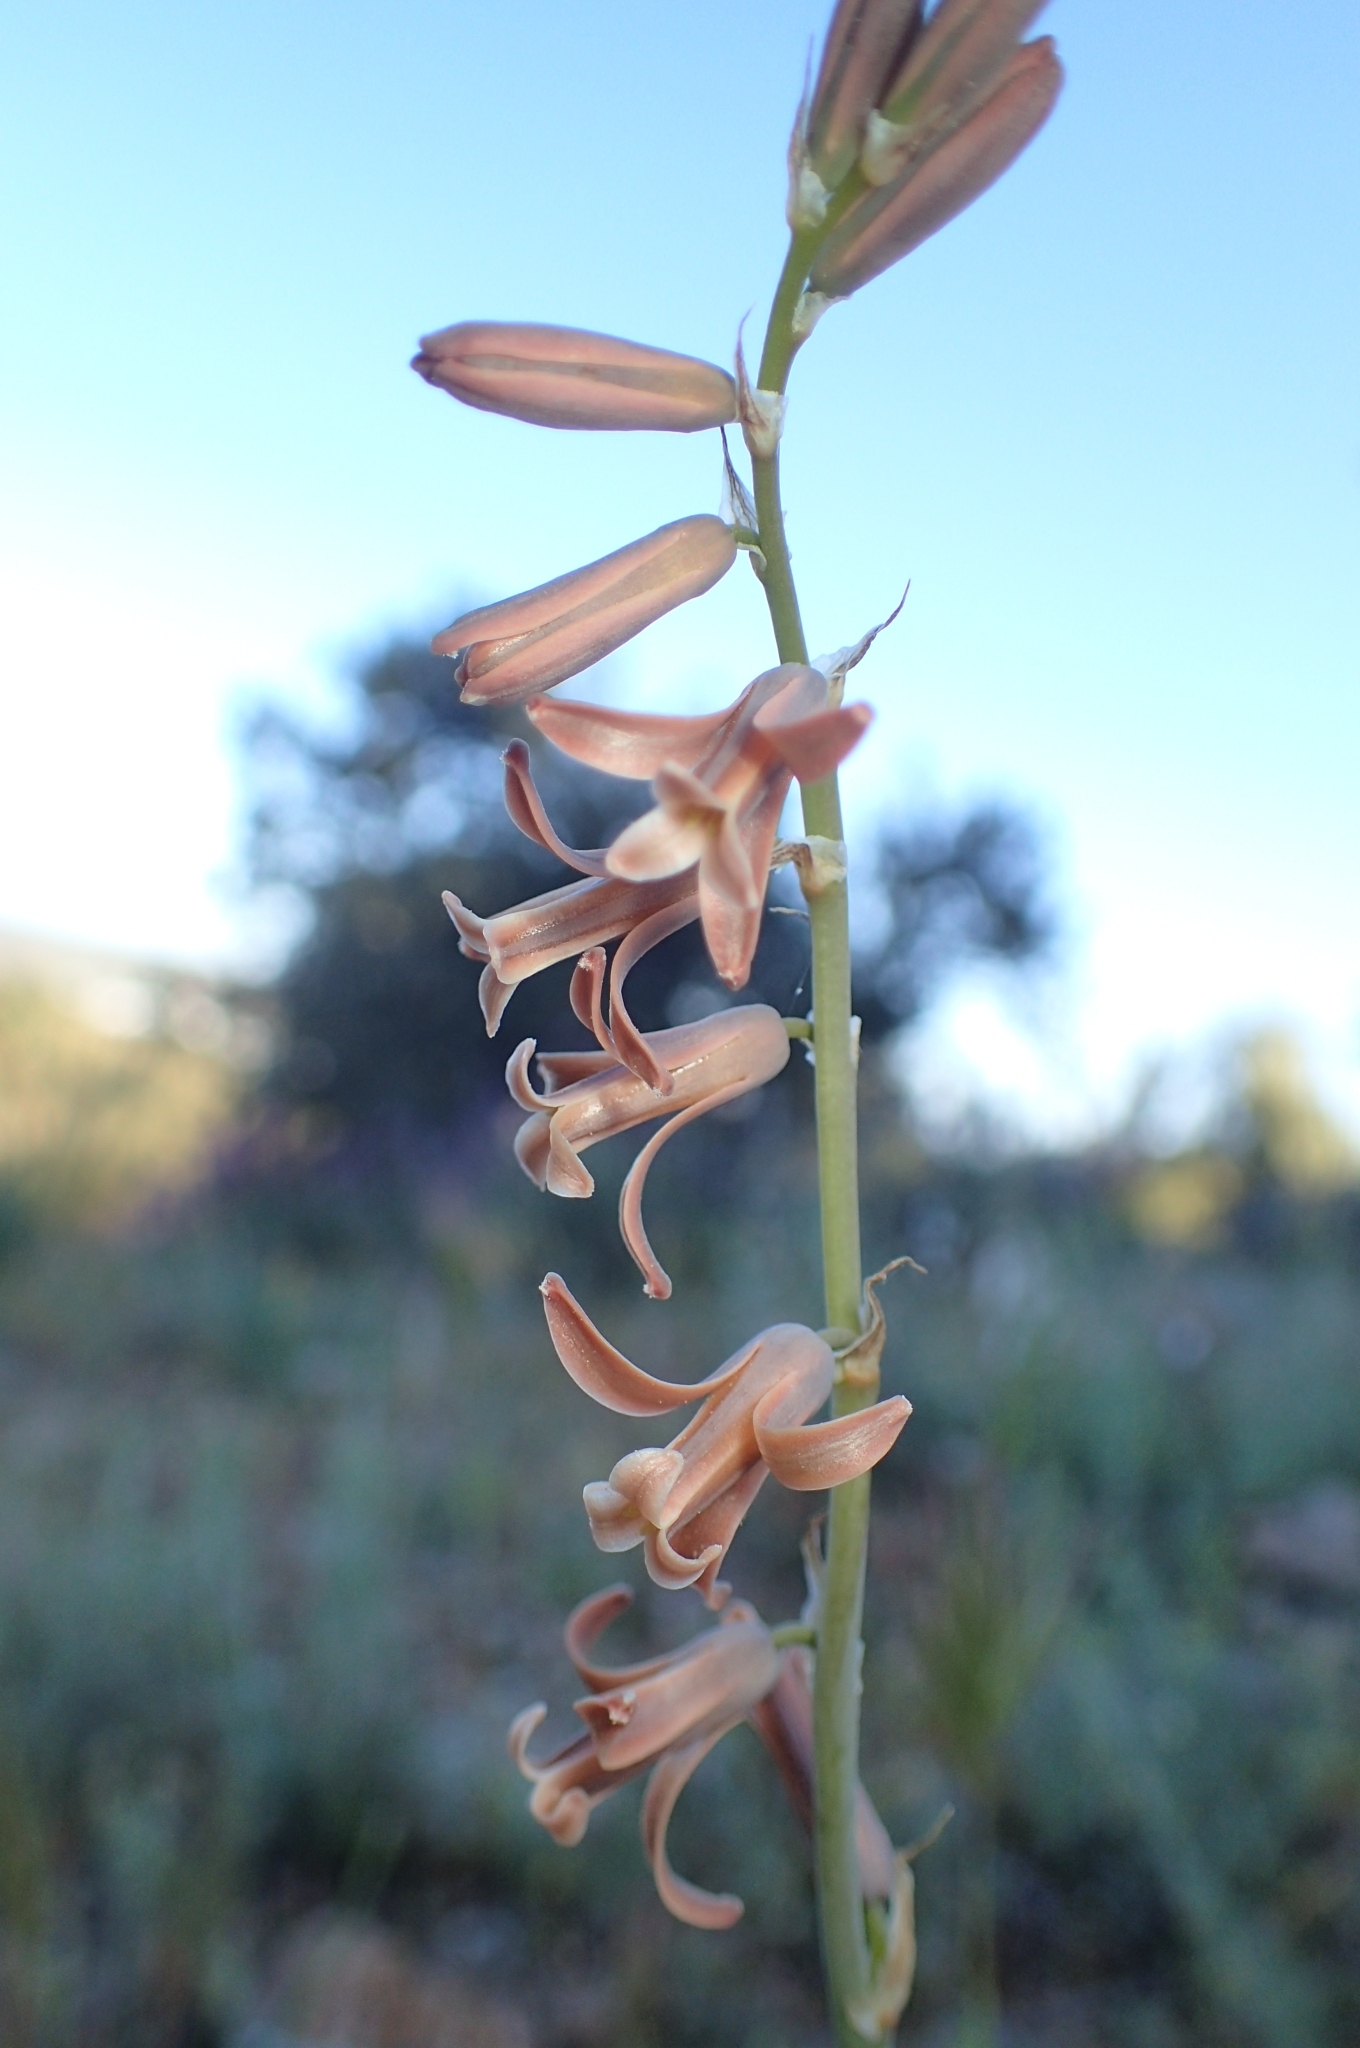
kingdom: Plantae
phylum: Tracheophyta
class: Liliopsida
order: Asparagales
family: Asparagaceae
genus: Dipcadi
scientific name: Dipcadi serotinum
